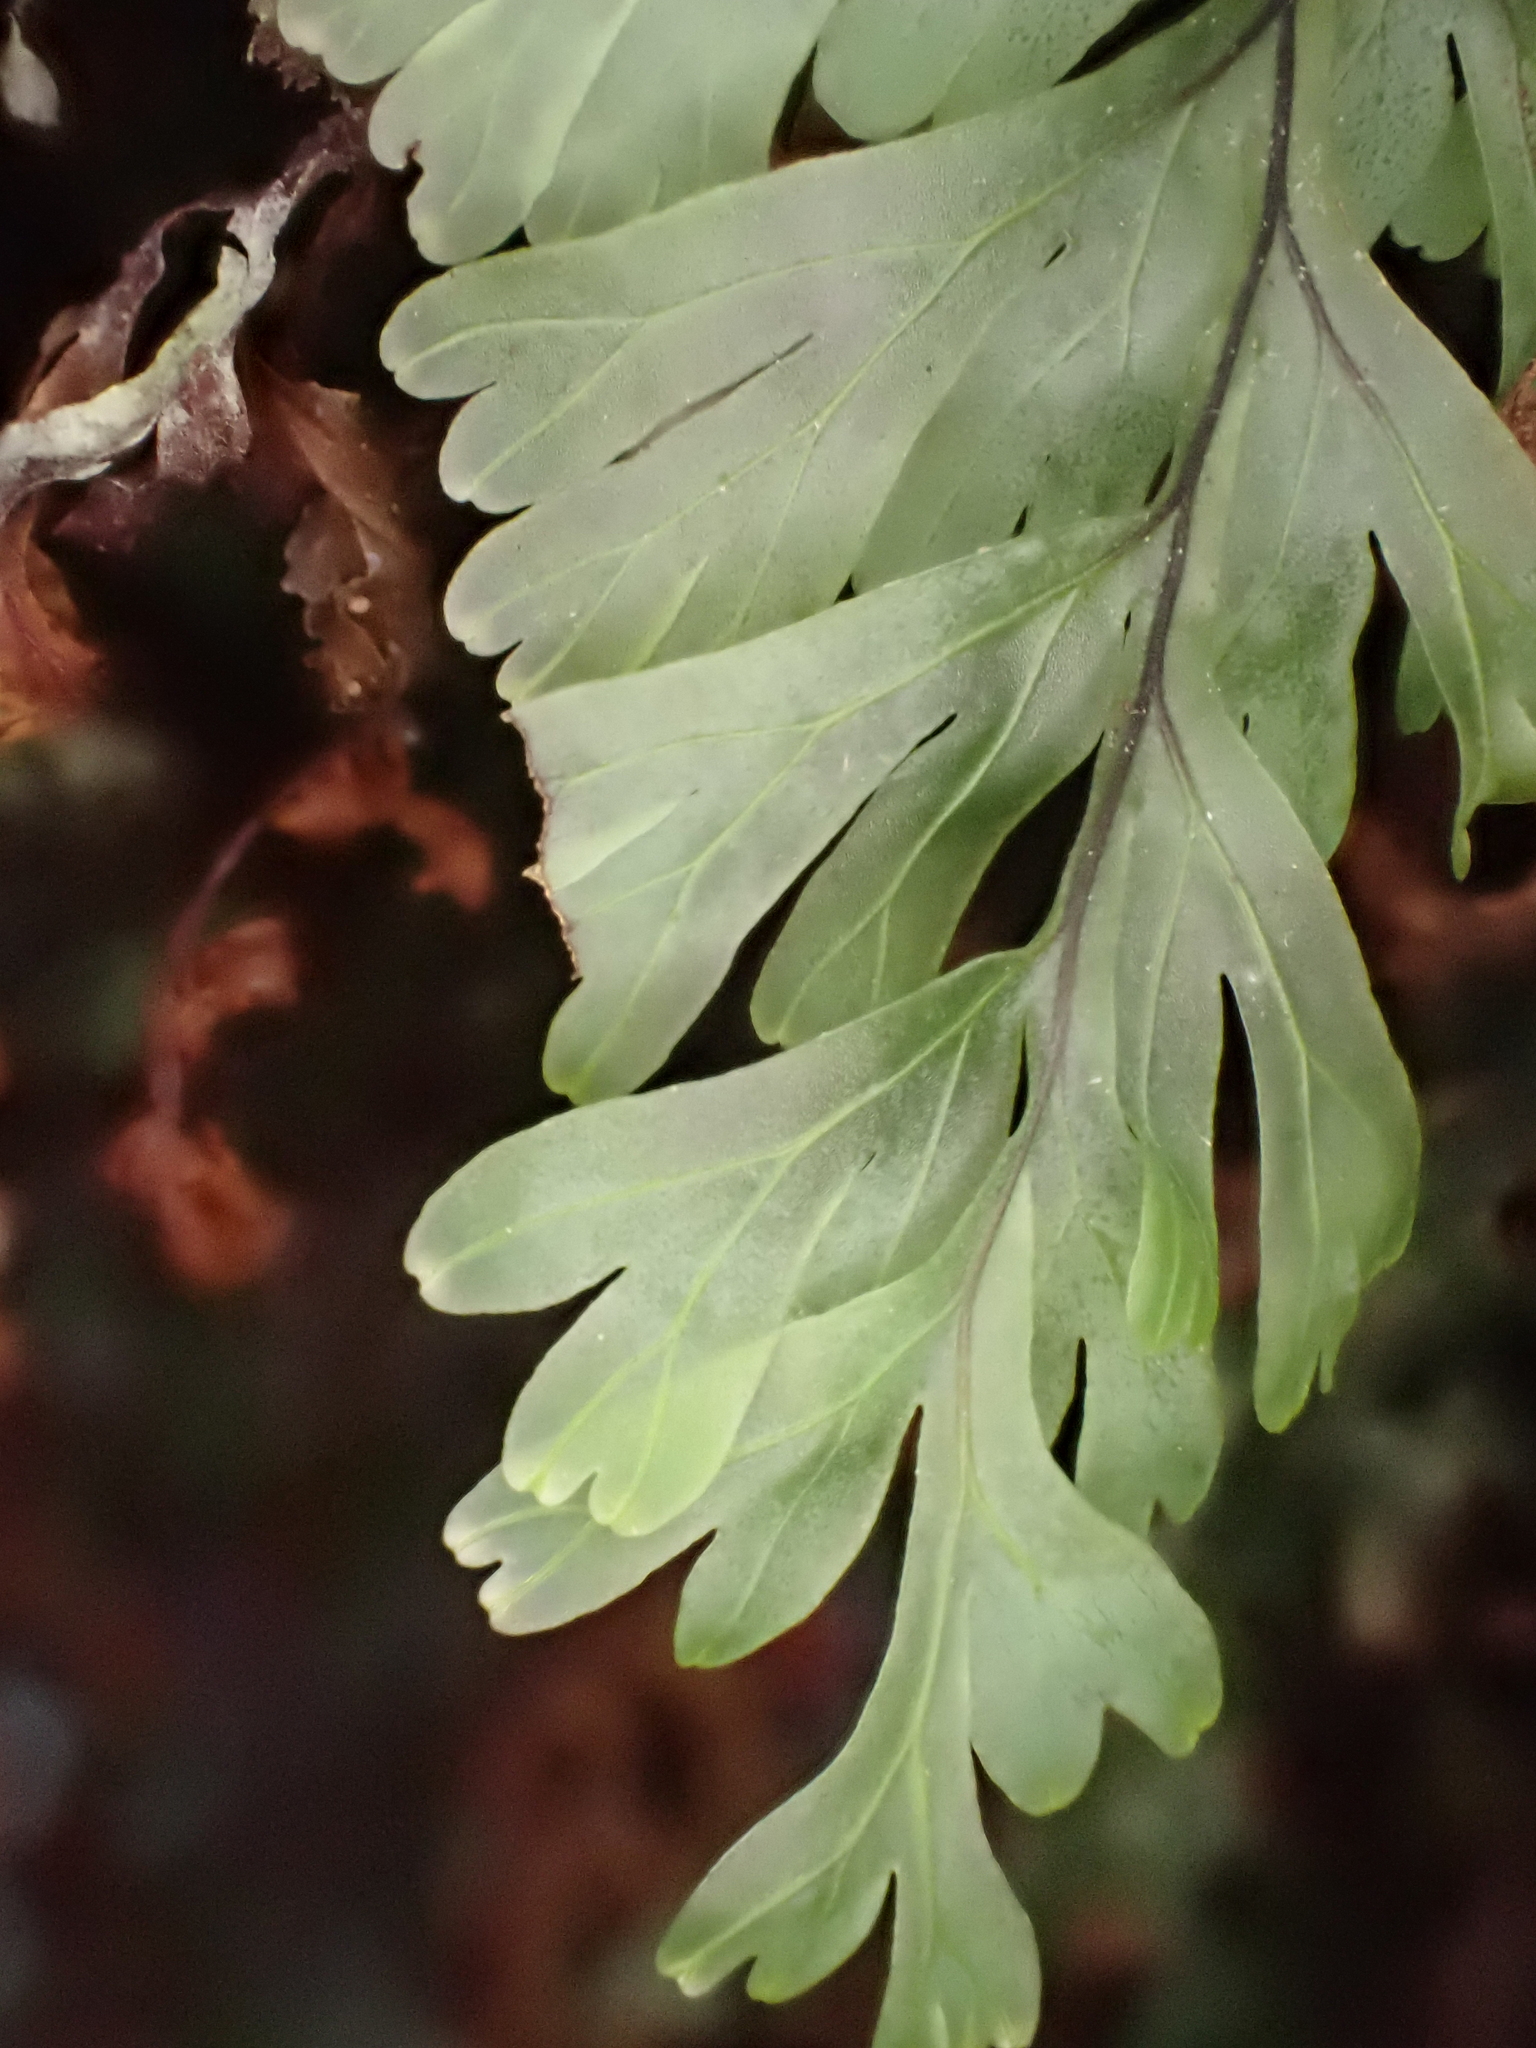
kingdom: Plantae
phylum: Tracheophyta
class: Polypodiopsida
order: Hymenophyllales
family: Hymenophyllaceae
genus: Hymenophyllum
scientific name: Hymenophyllum rarum
